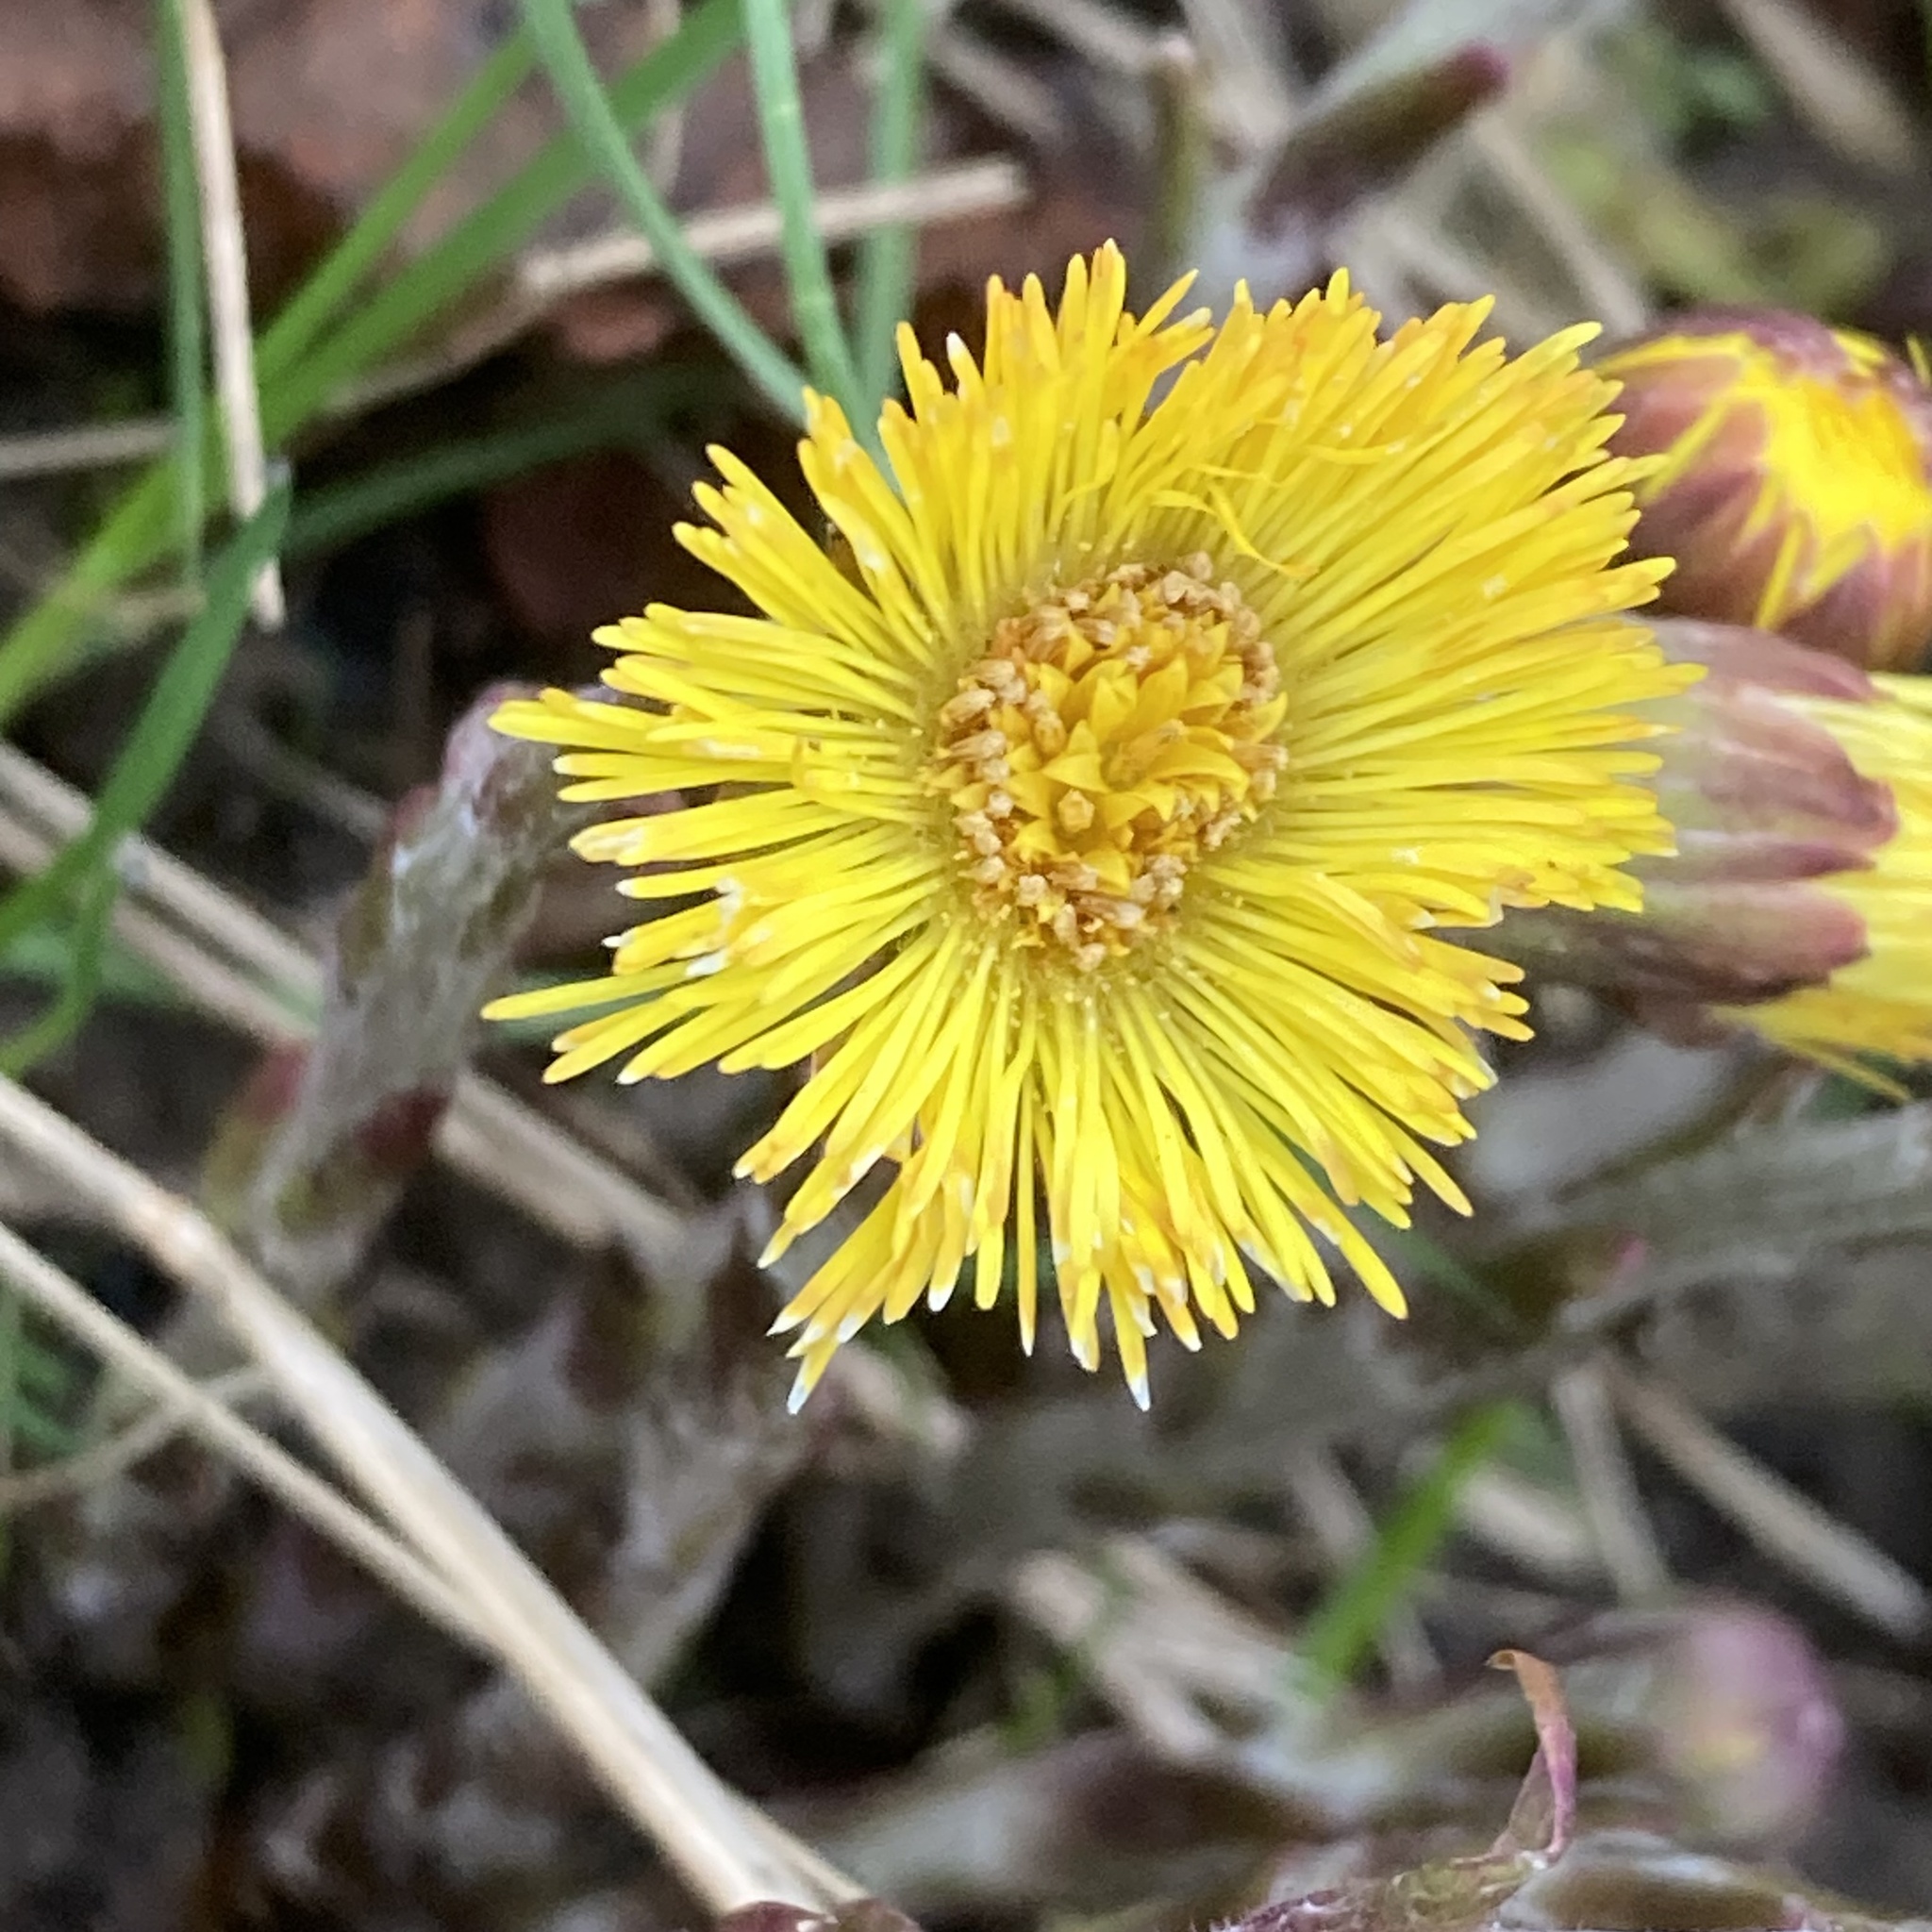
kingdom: Plantae
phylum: Tracheophyta
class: Magnoliopsida
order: Asterales
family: Asteraceae
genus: Tussilago
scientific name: Tussilago farfara
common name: Coltsfoot
